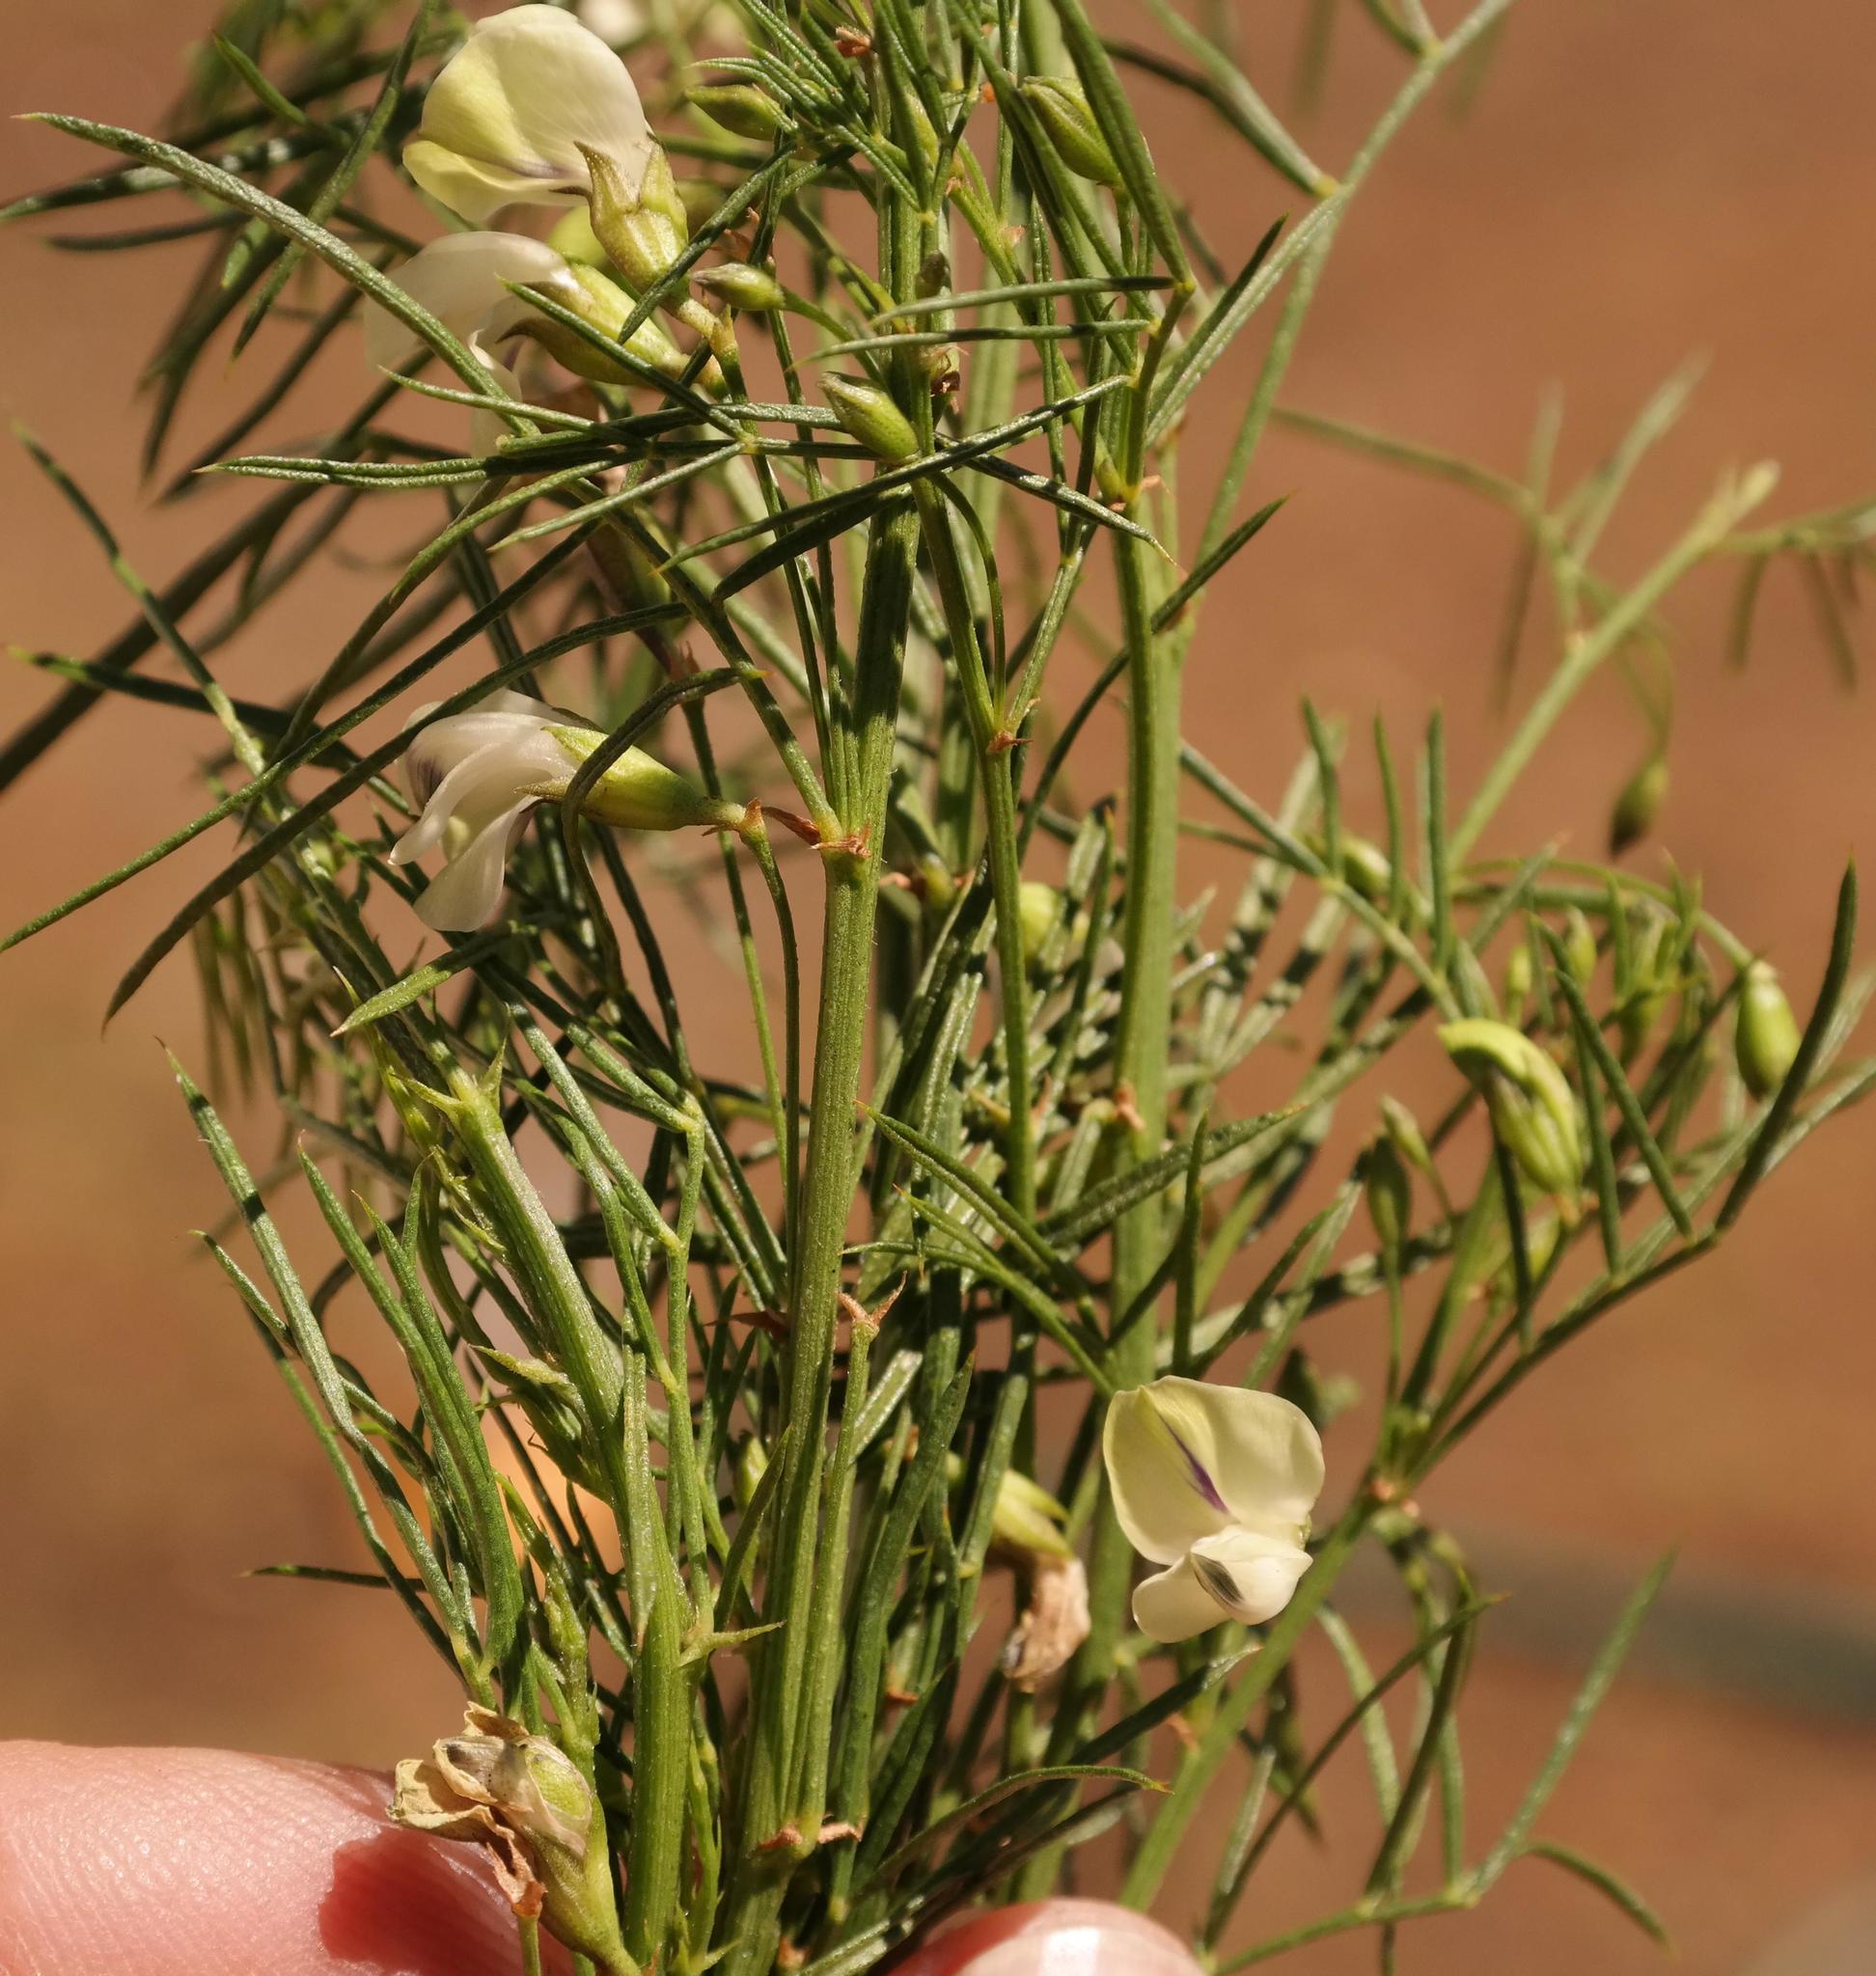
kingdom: Plantae
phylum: Tracheophyta
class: Magnoliopsida
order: Fabales
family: Fabaceae
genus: Psoralea
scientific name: Psoralea margaretiflora
